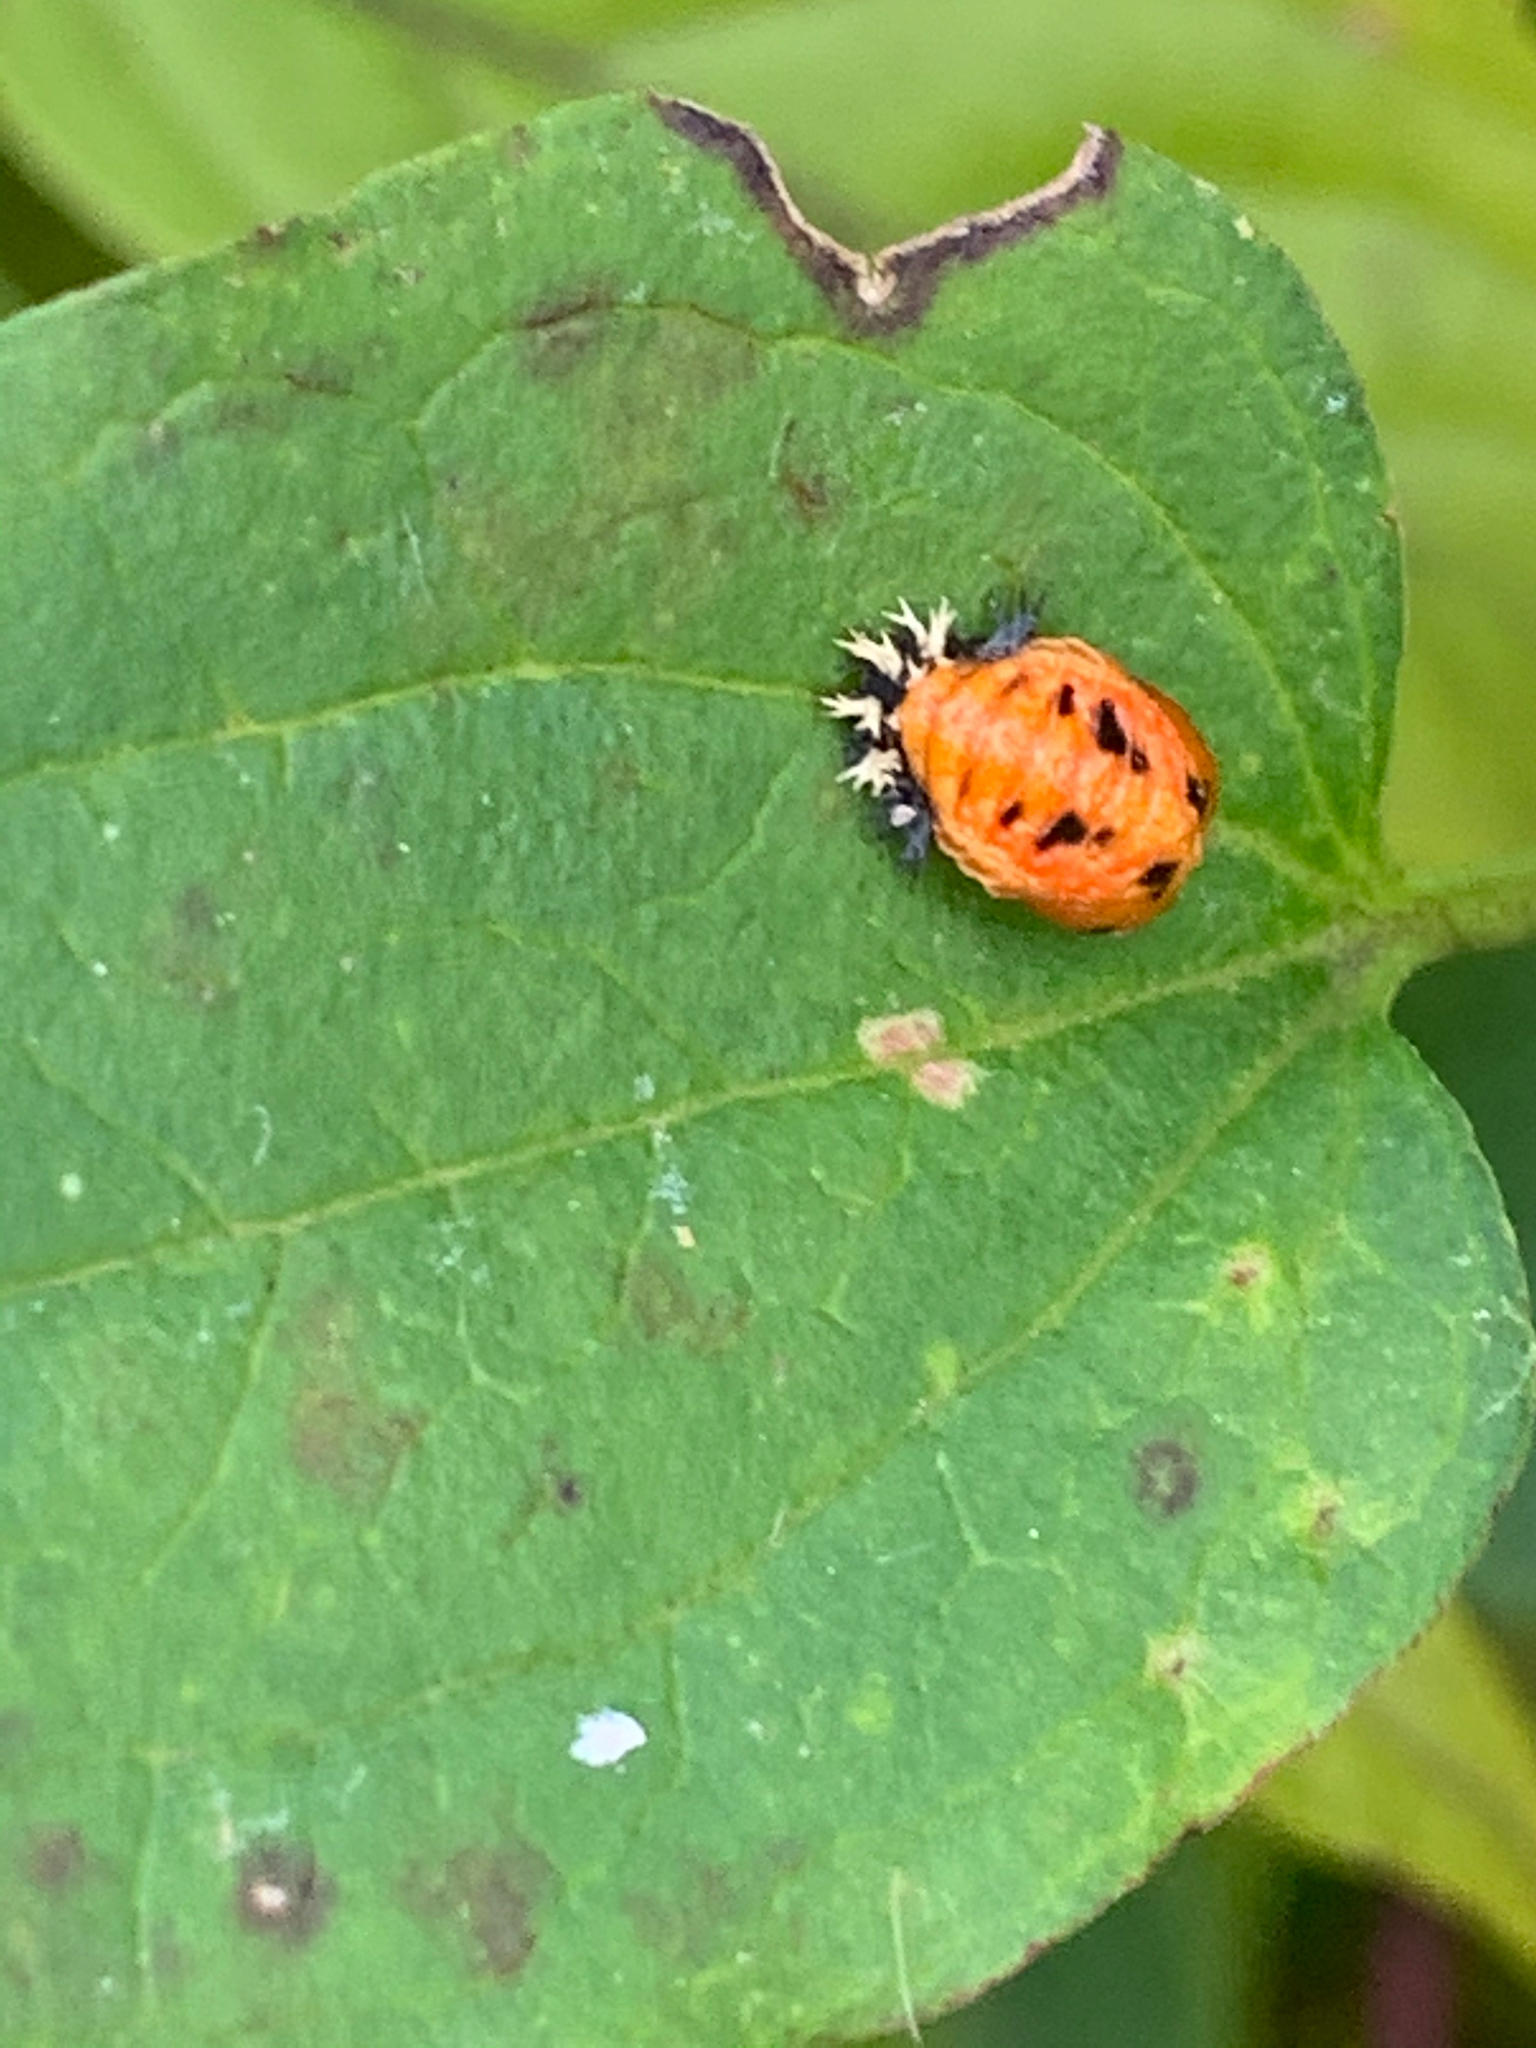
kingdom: Animalia
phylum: Arthropoda
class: Insecta
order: Coleoptera
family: Coccinellidae
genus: Harmonia
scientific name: Harmonia axyridis
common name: Harlequin ladybird
